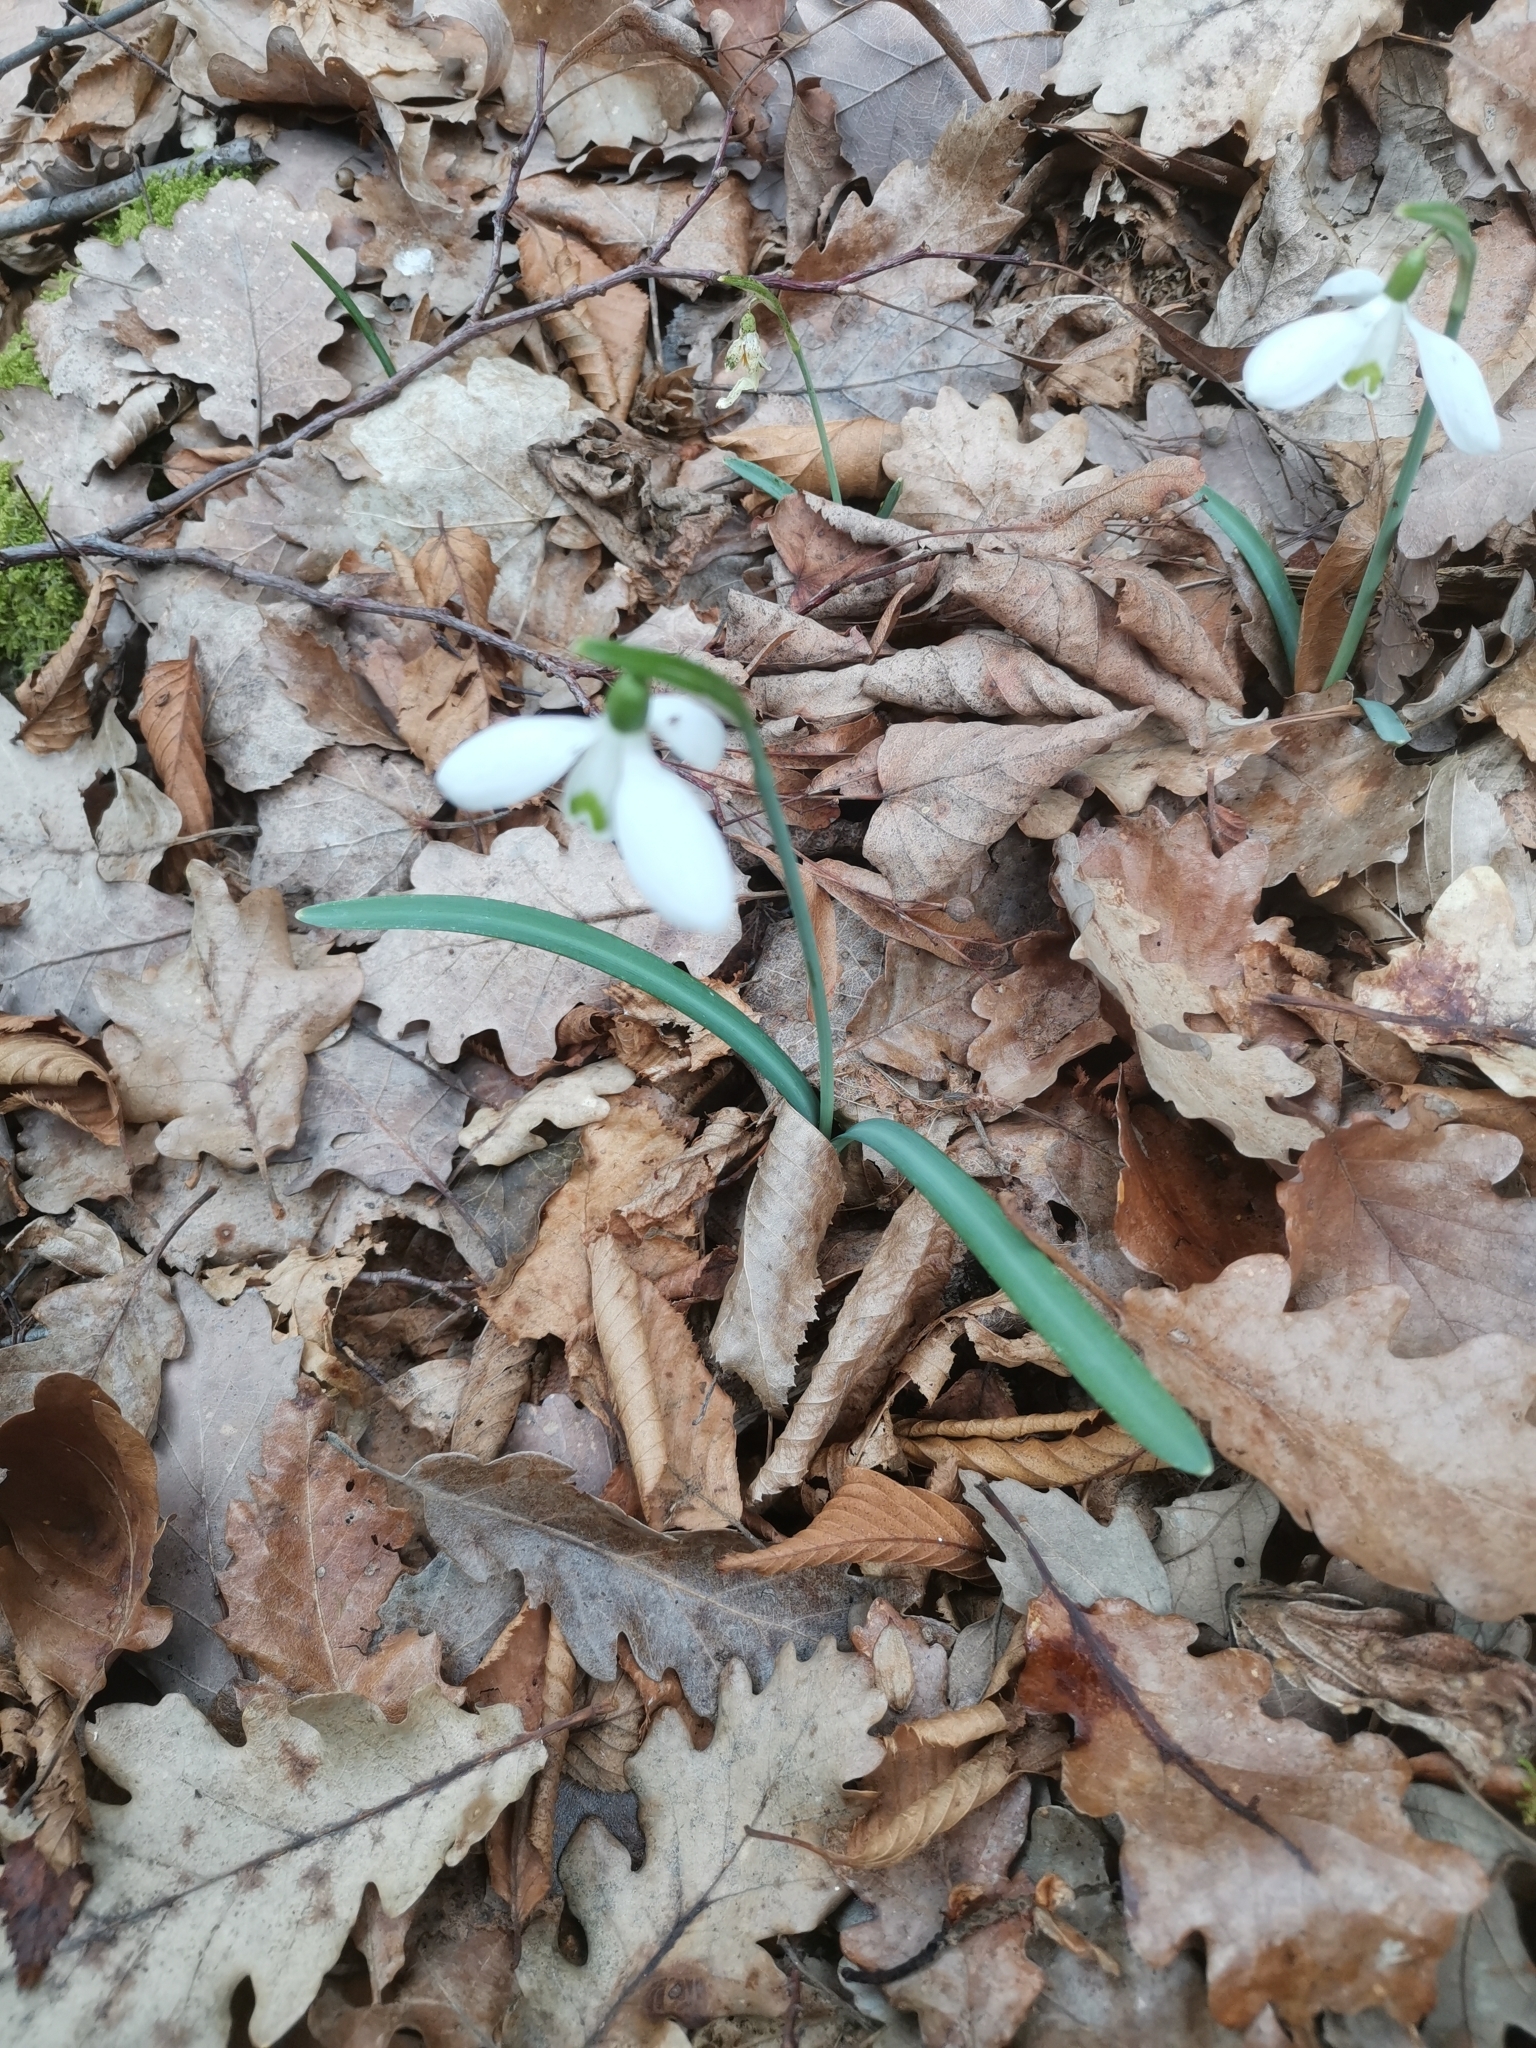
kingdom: Plantae
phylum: Tracheophyta
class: Liliopsida
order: Asparagales
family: Amaryllidaceae
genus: Galanthus
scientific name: Galanthus nivalis
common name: Snowdrop
